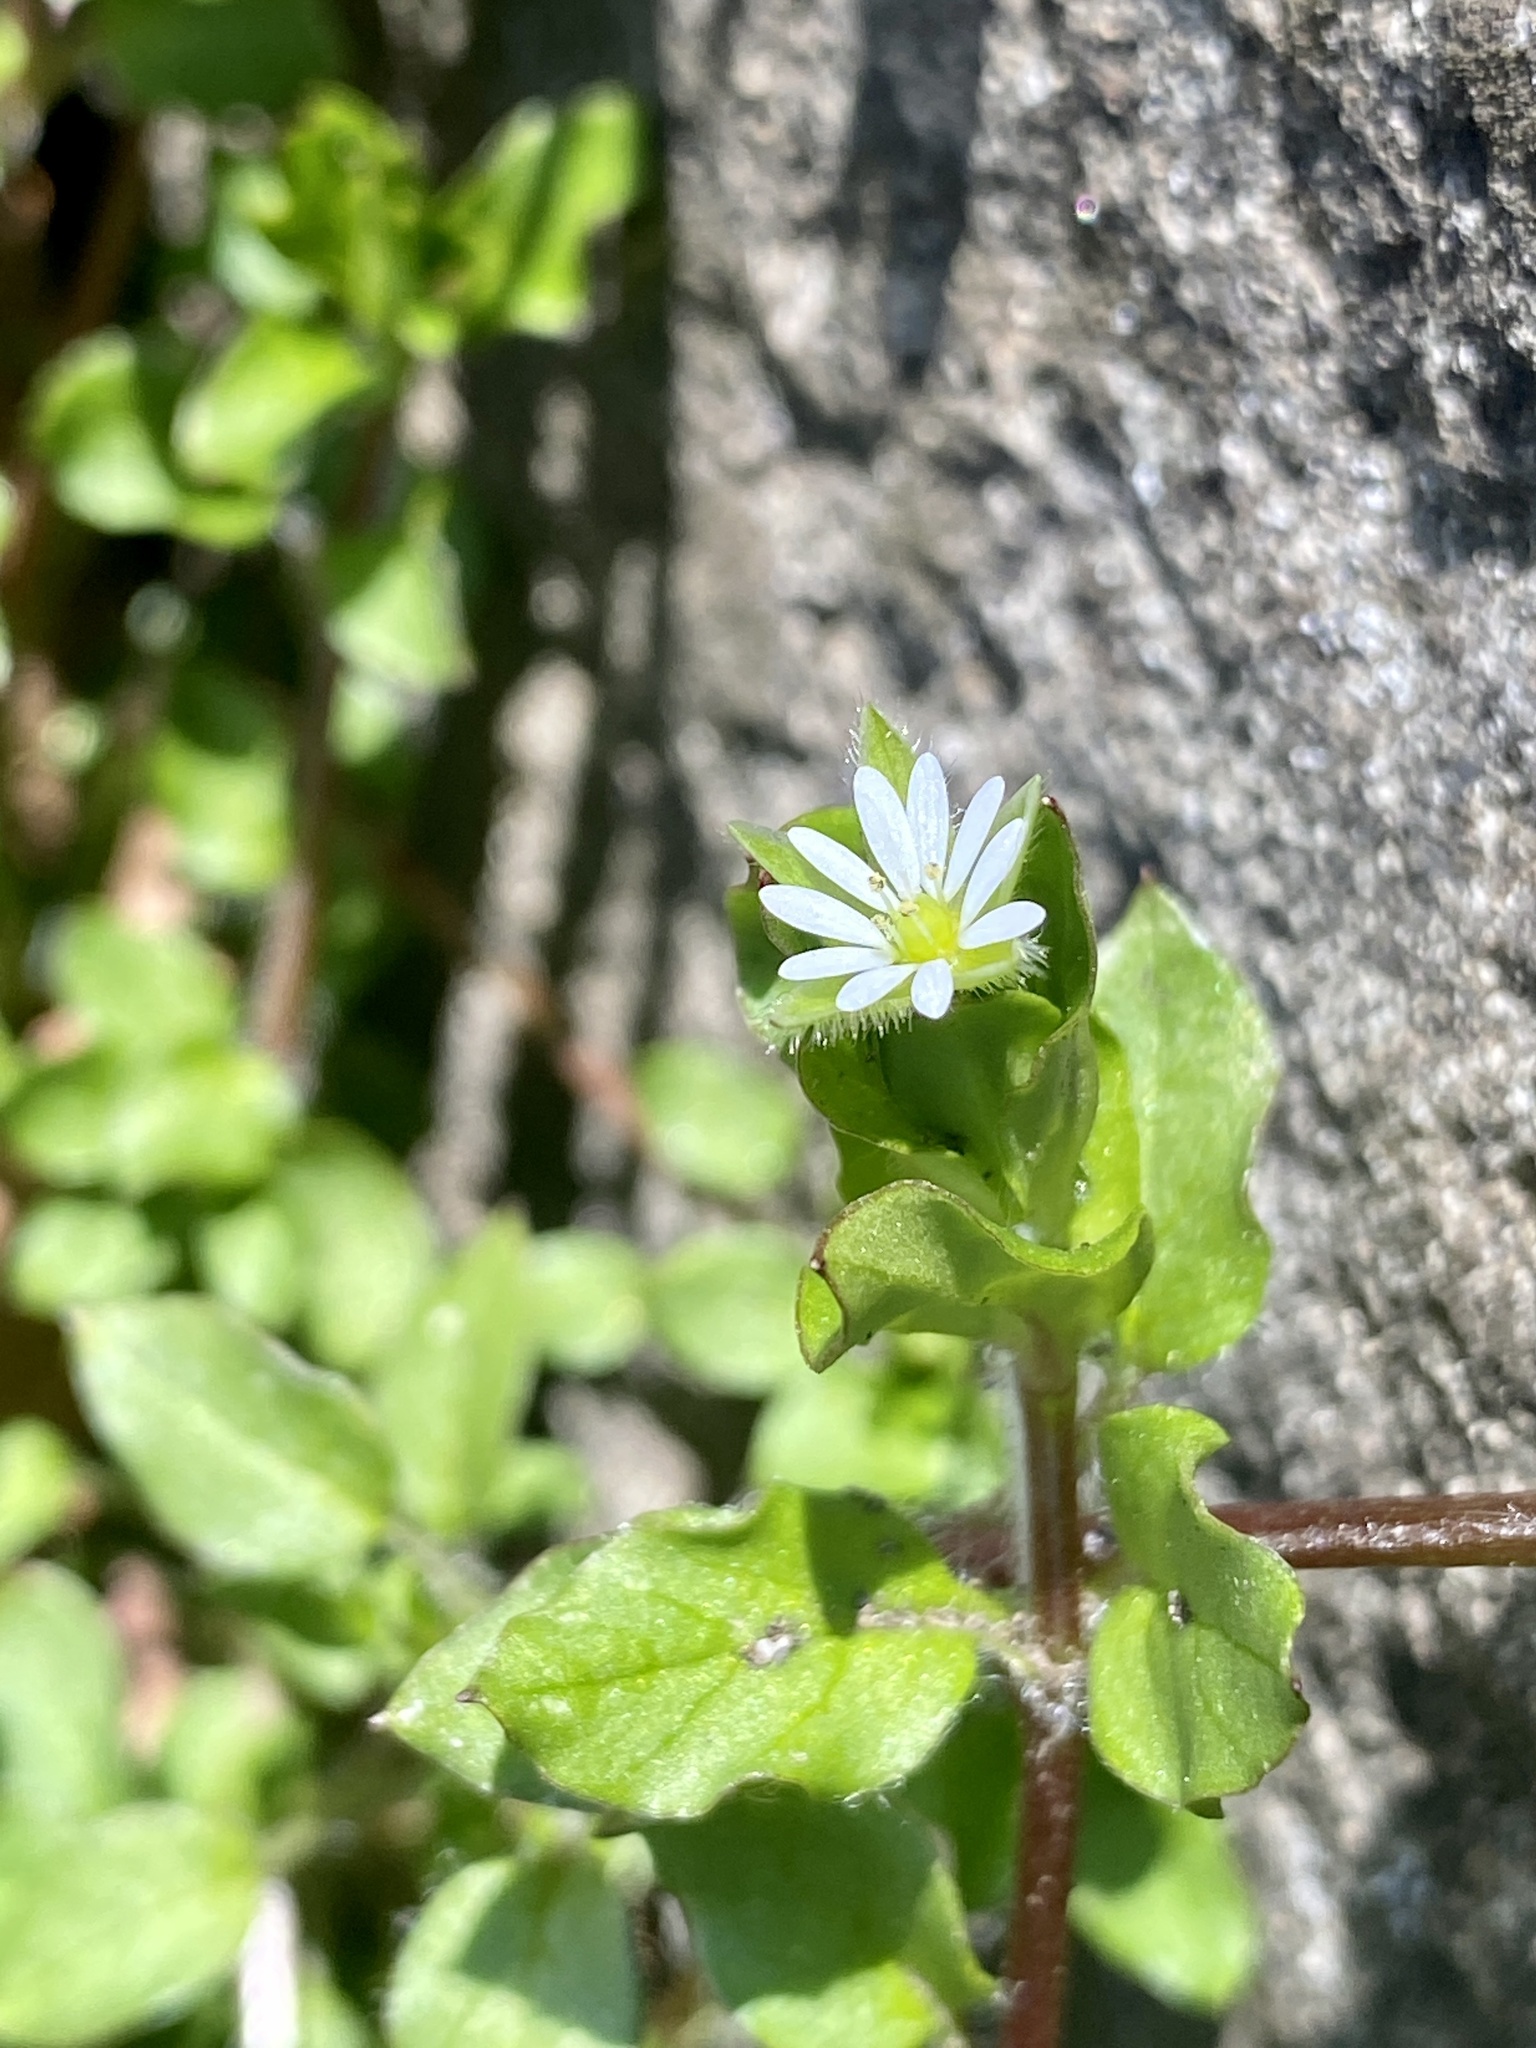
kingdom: Plantae
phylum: Tracheophyta
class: Magnoliopsida
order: Caryophyllales
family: Caryophyllaceae
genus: Stellaria
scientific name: Stellaria media
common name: Common chickweed
